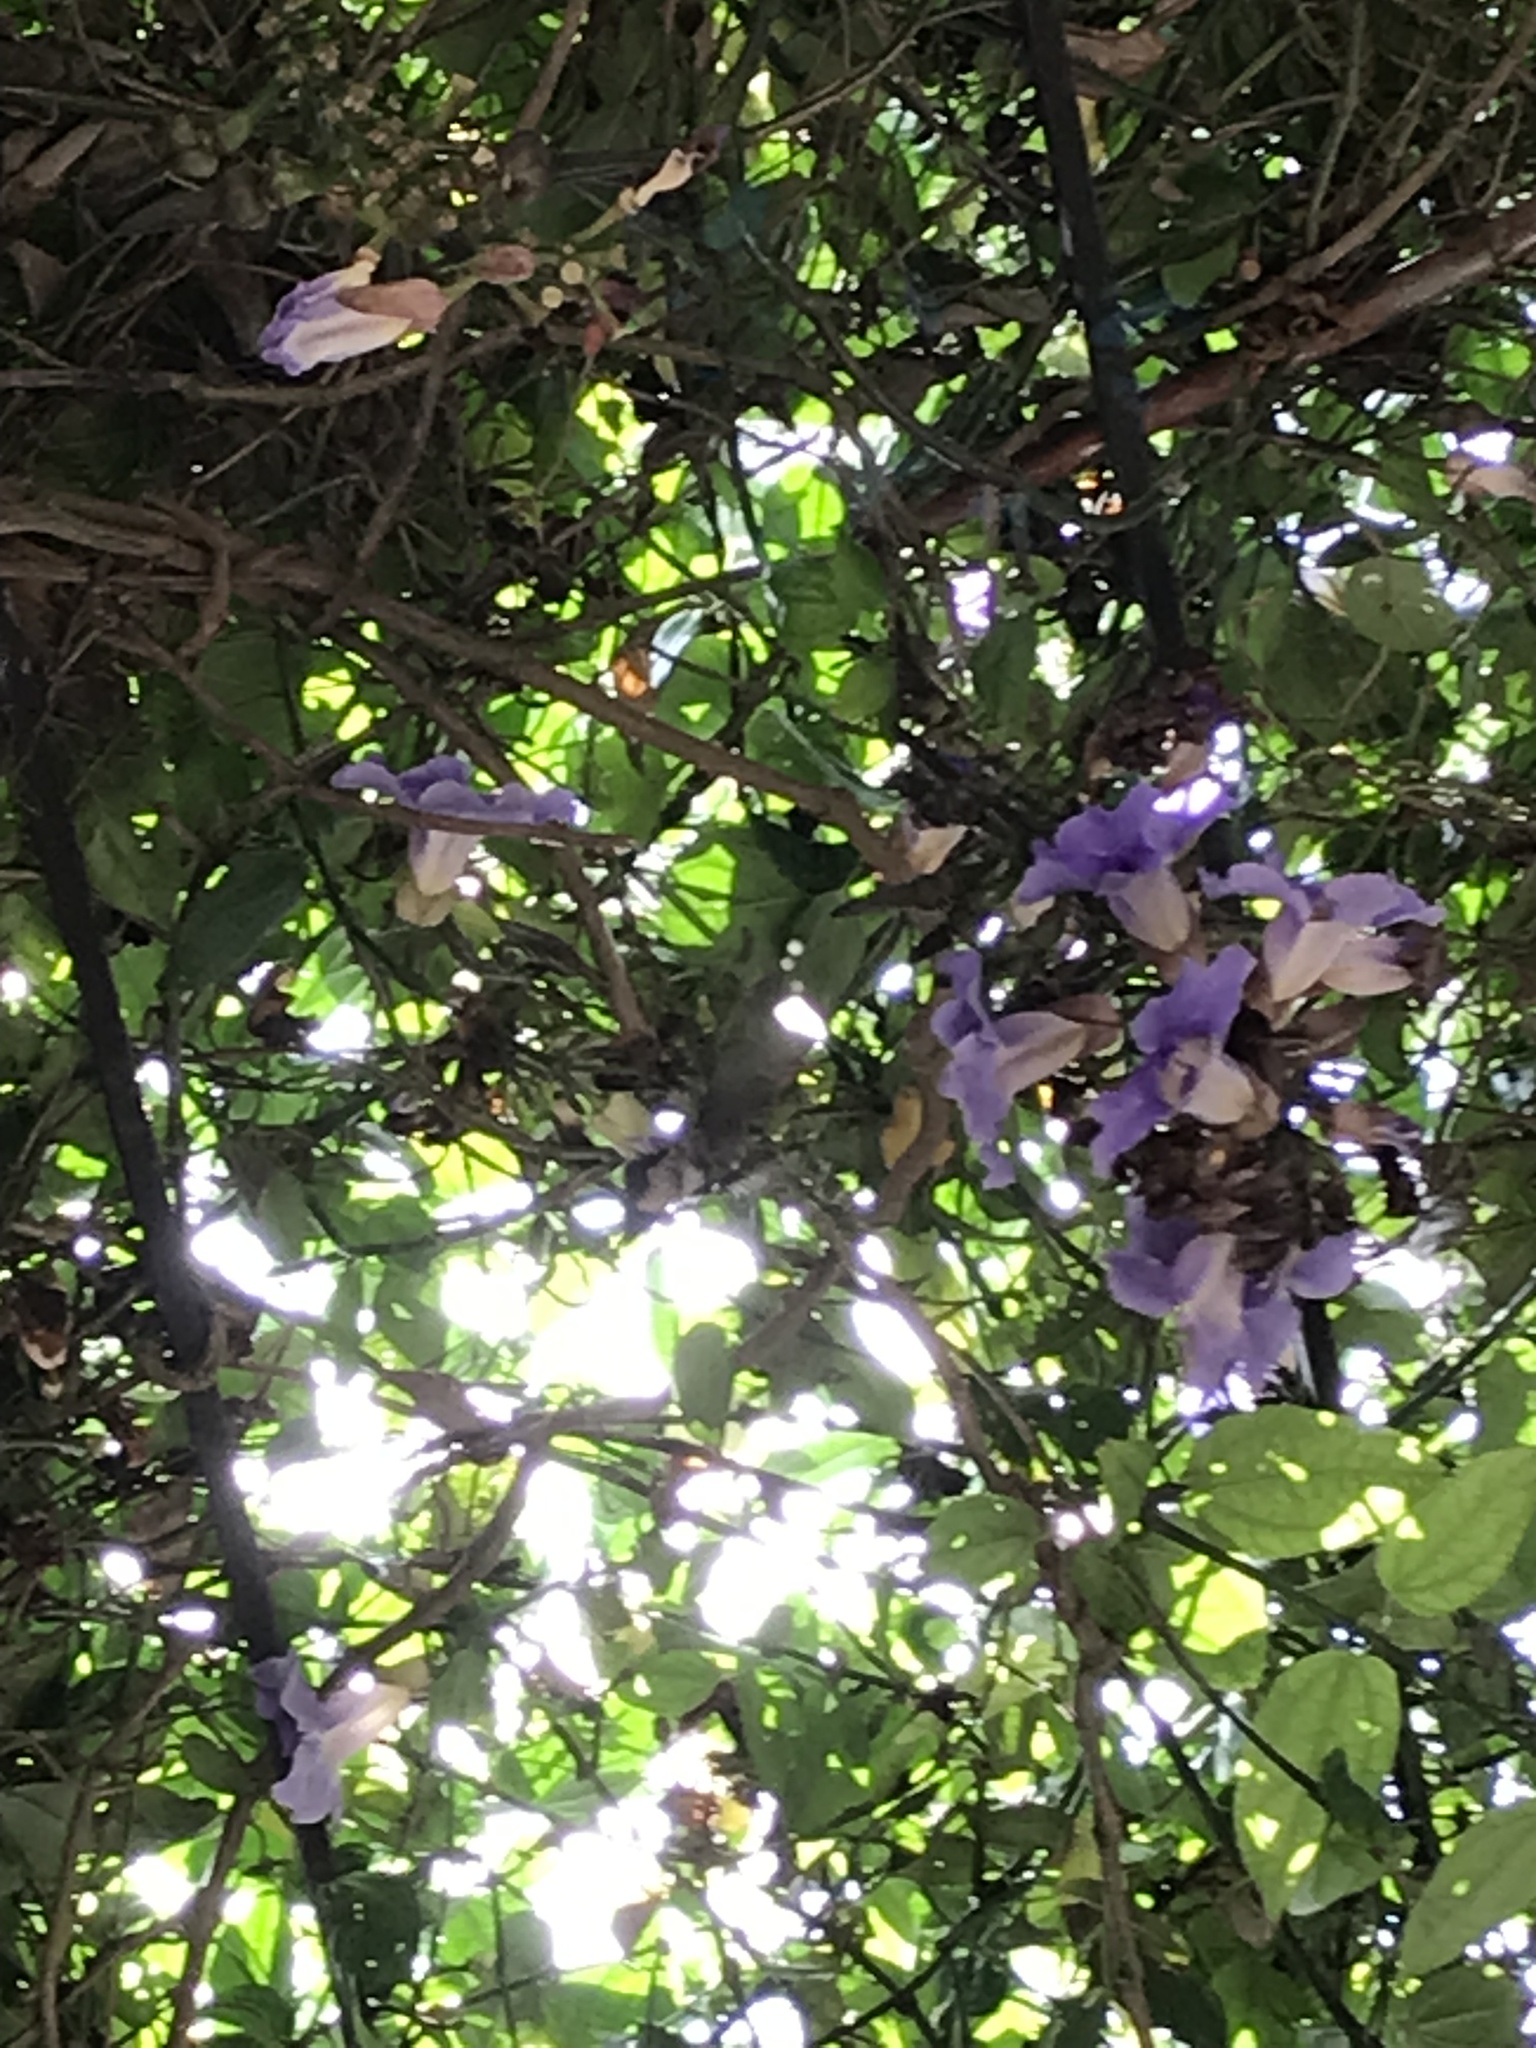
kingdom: Animalia
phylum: Chordata
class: Aves
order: Apodiformes
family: Trochilidae
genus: Phaeoptila
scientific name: Phaeoptila sordida
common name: Dusky hummingbird
